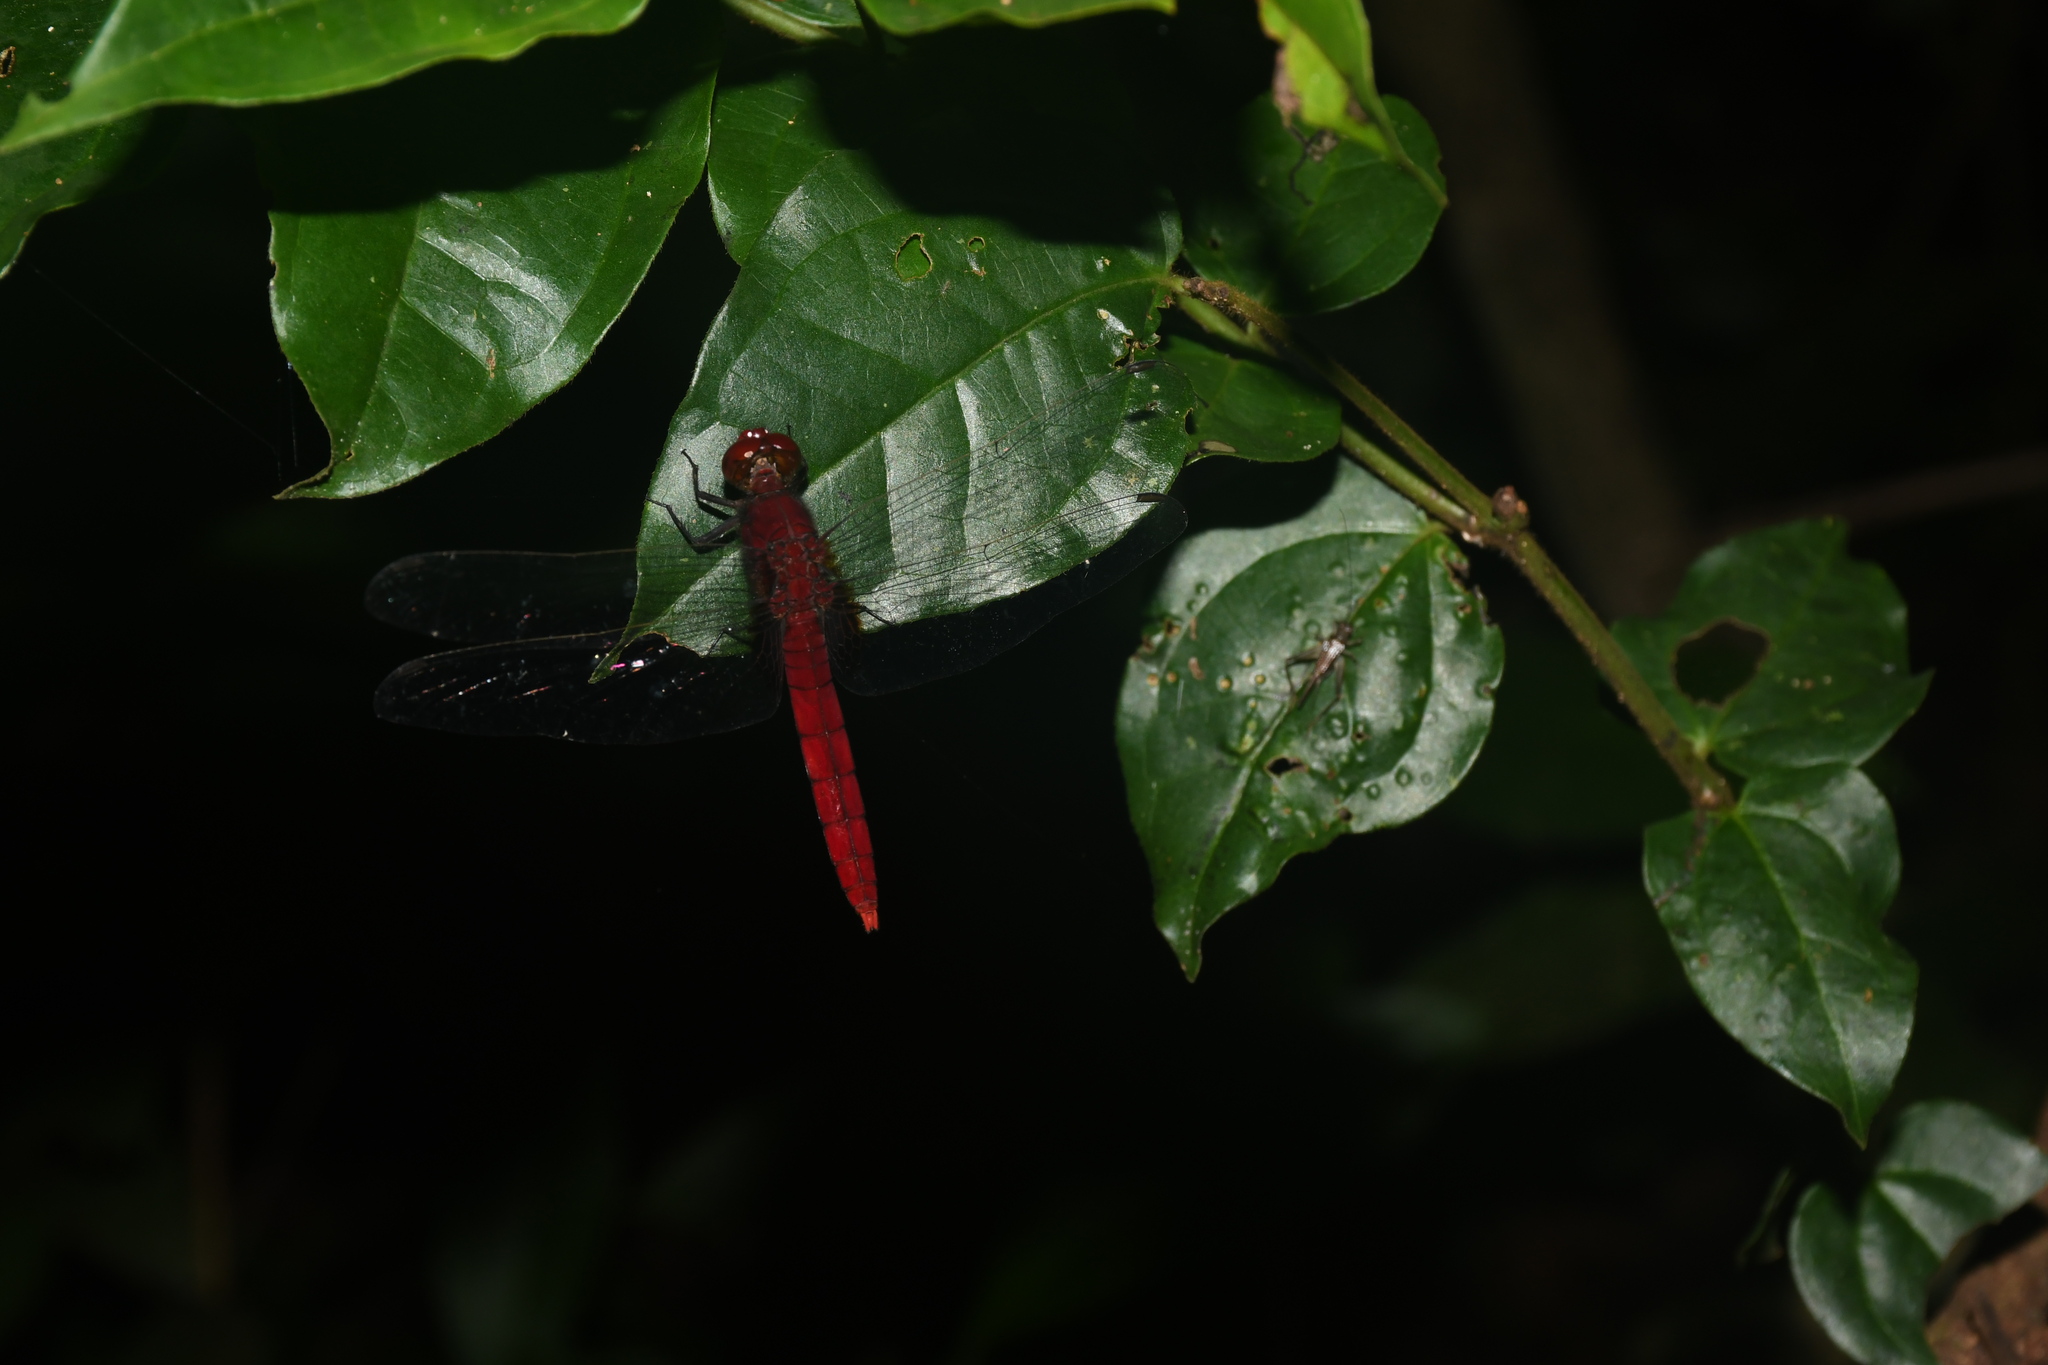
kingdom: Animalia
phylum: Arthropoda
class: Insecta
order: Odonata
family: Libellulidae
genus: Erythemis
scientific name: Erythemis mithroides
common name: Claret pondhawk
